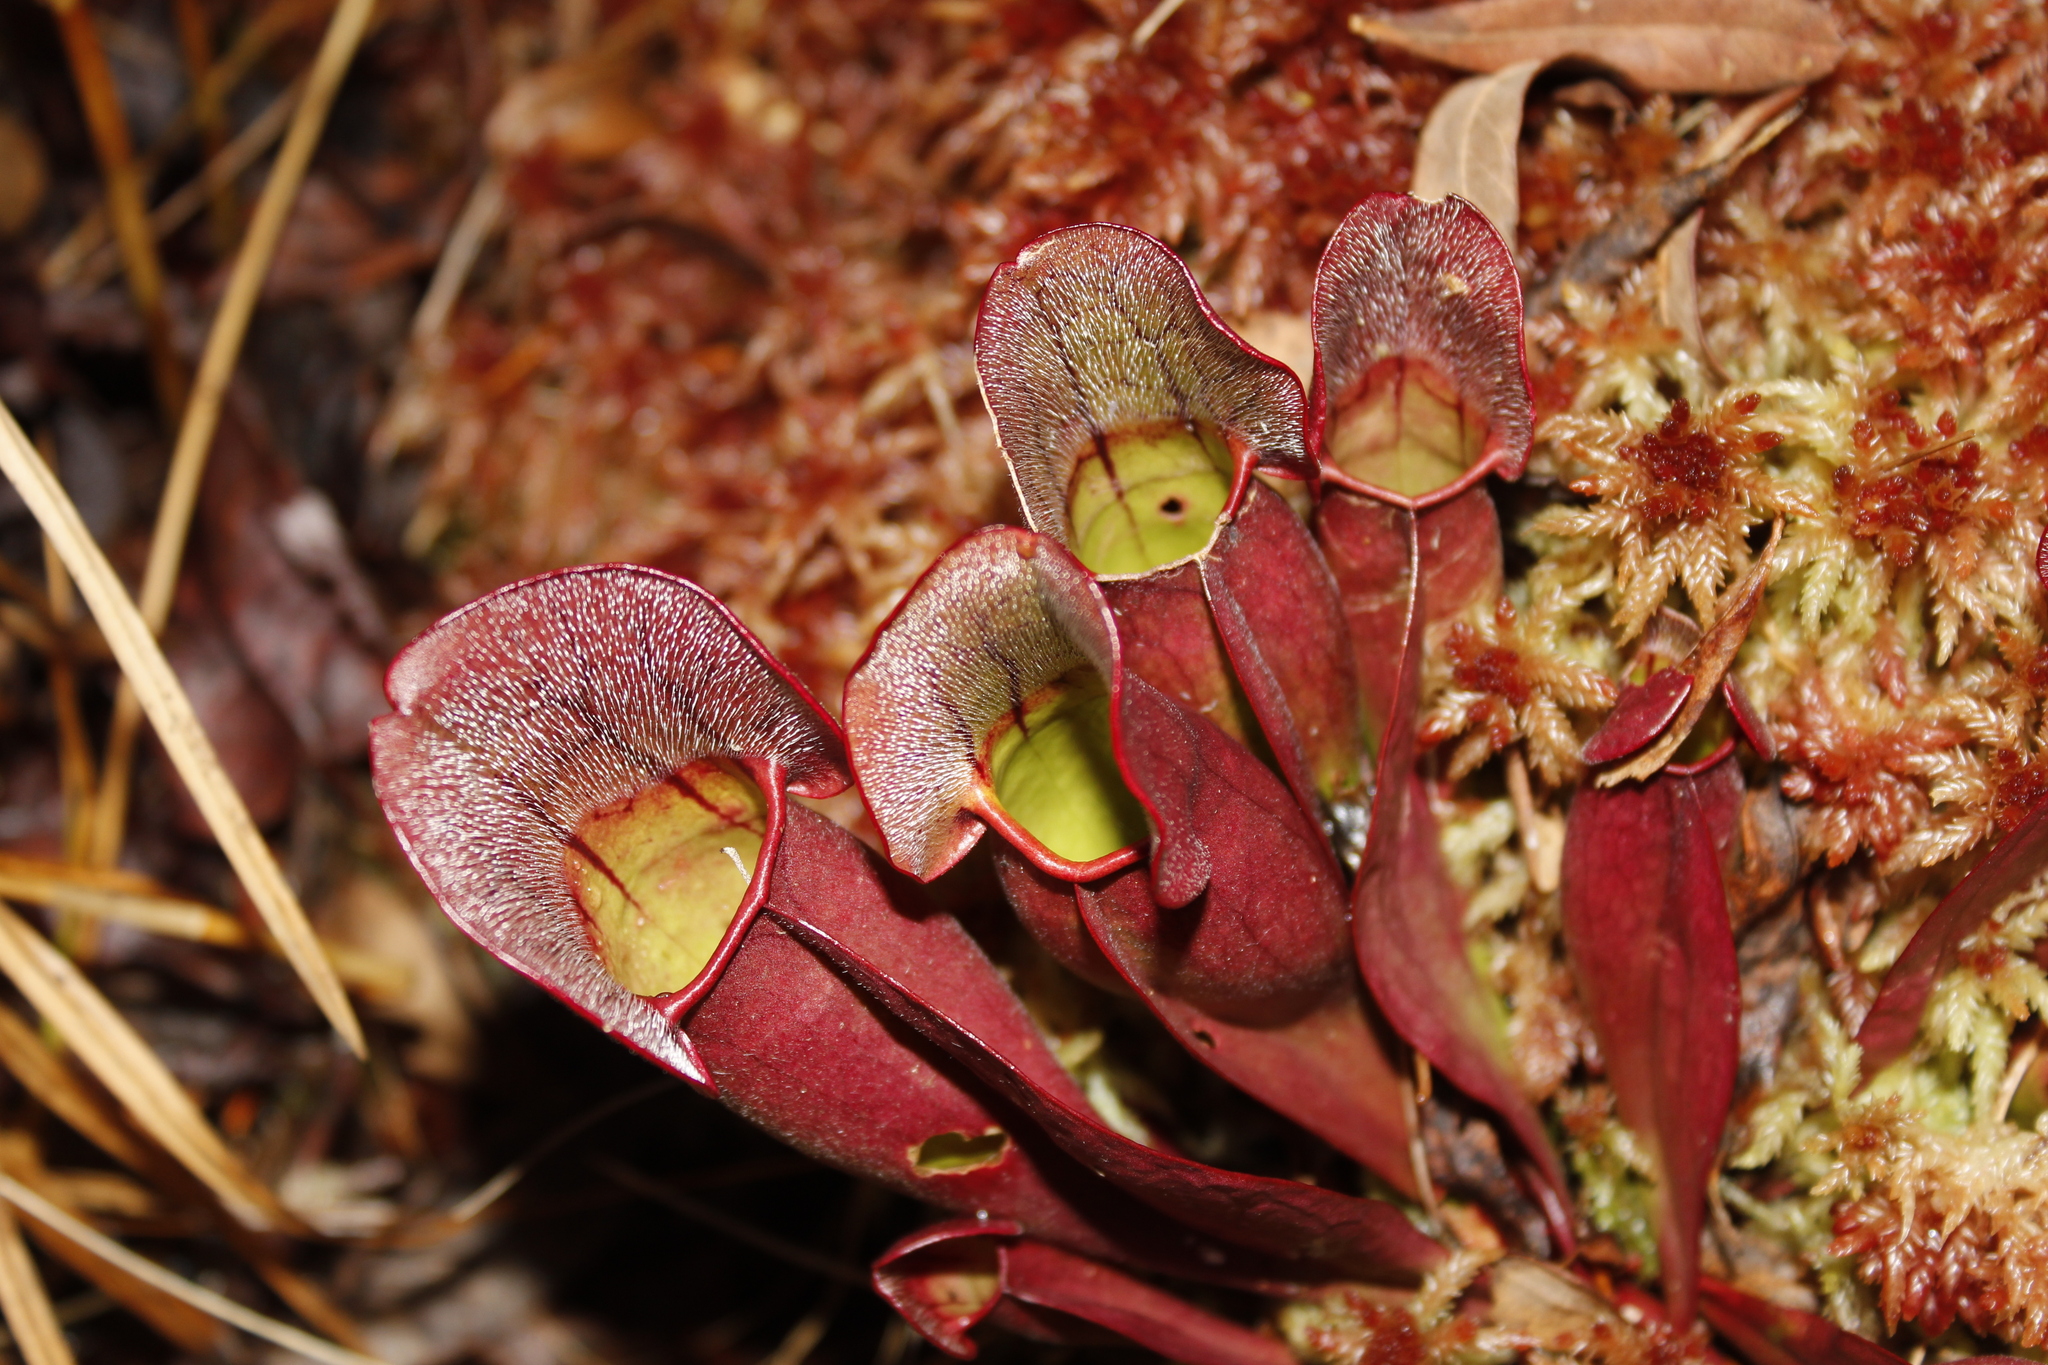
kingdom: Plantae
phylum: Tracheophyta
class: Magnoliopsida
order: Ericales
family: Sarraceniaceae
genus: Sarracenia
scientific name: Sarracenia purpurea
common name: Pitcherplant
